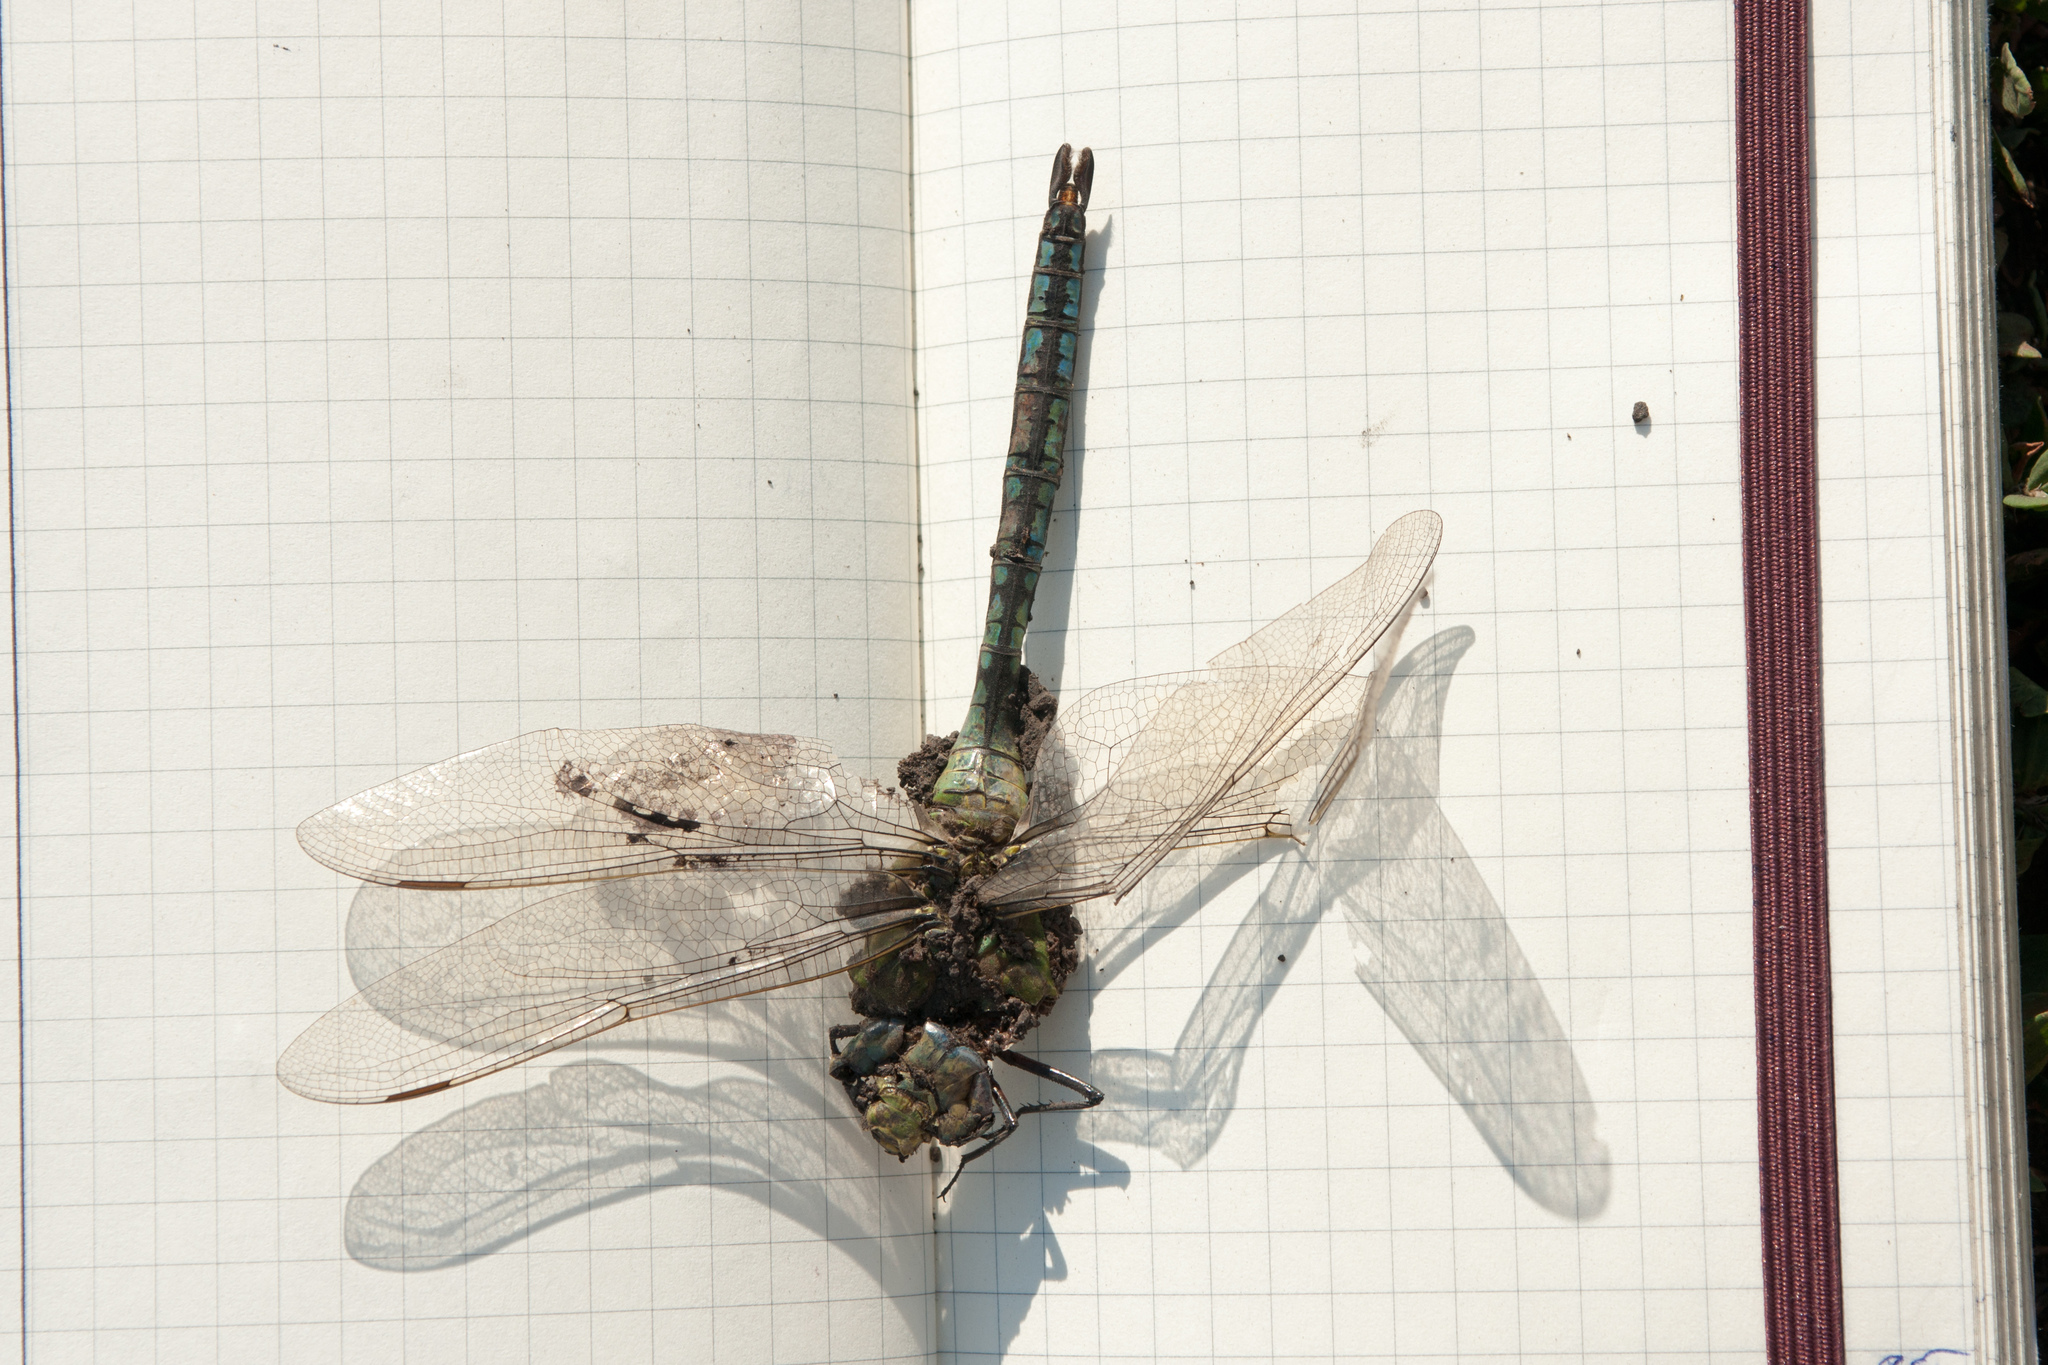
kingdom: Animalia
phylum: Arthropoda
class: Insecta
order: Odonata
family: Aeshnidae
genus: Anax
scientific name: Anax imperator
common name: Emperor dragonfly
